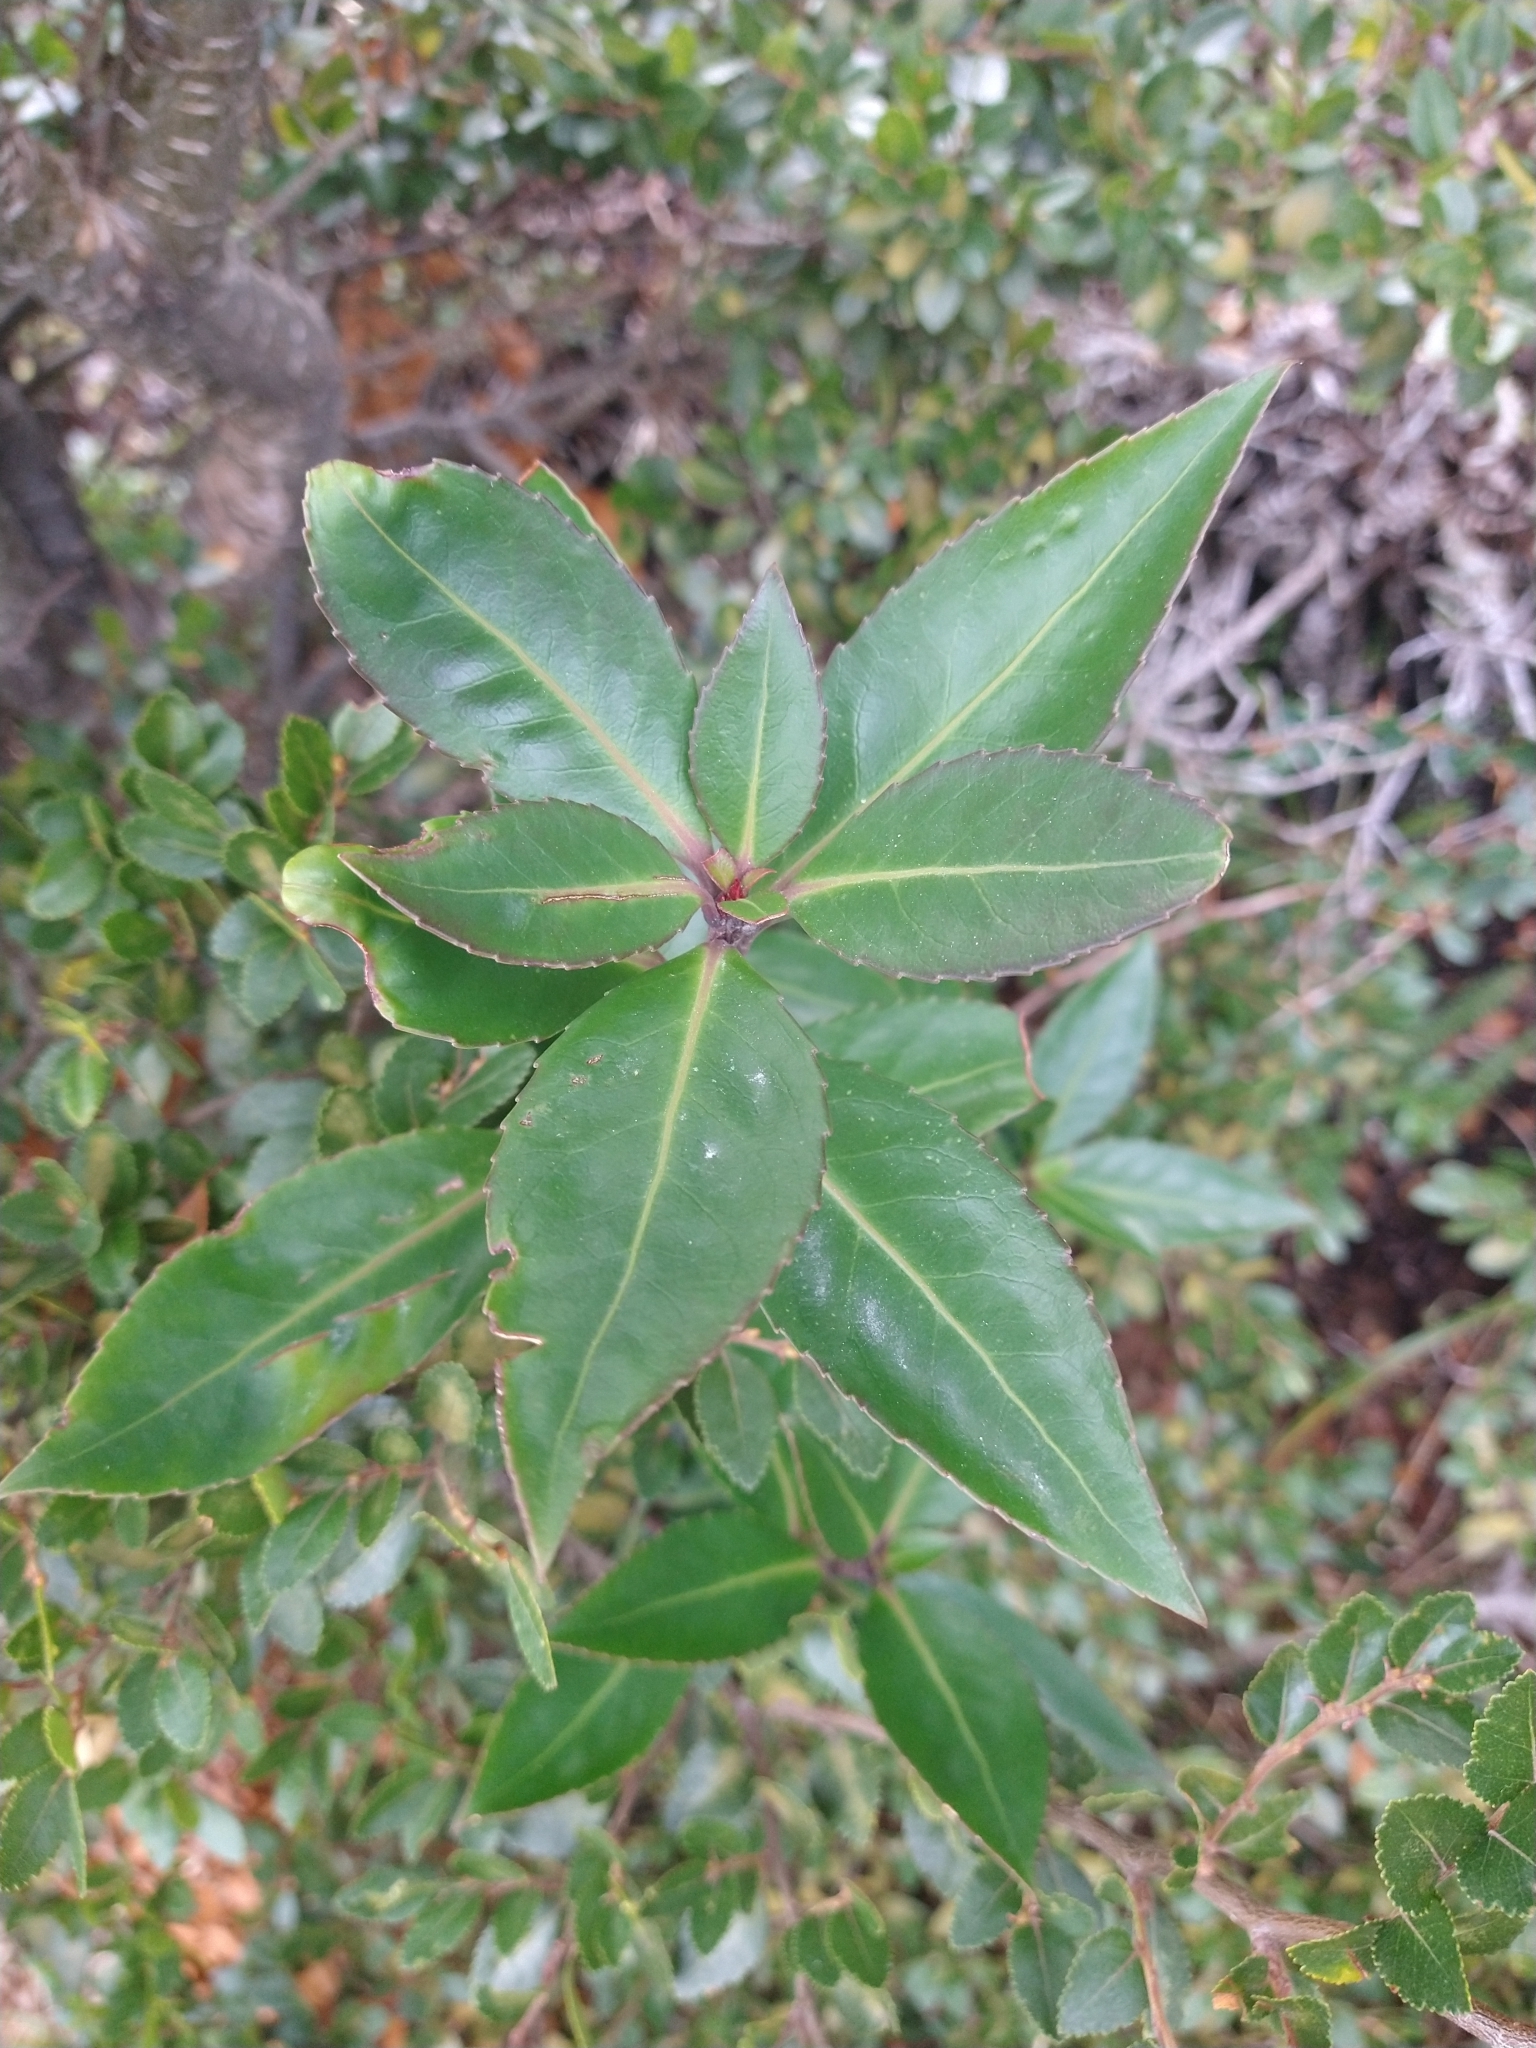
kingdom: Plantae
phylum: Tracheophyta
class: Magnoliopsida
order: Celastrales
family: Celastraceae
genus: Maytenus
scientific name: Maytenus magellanica
